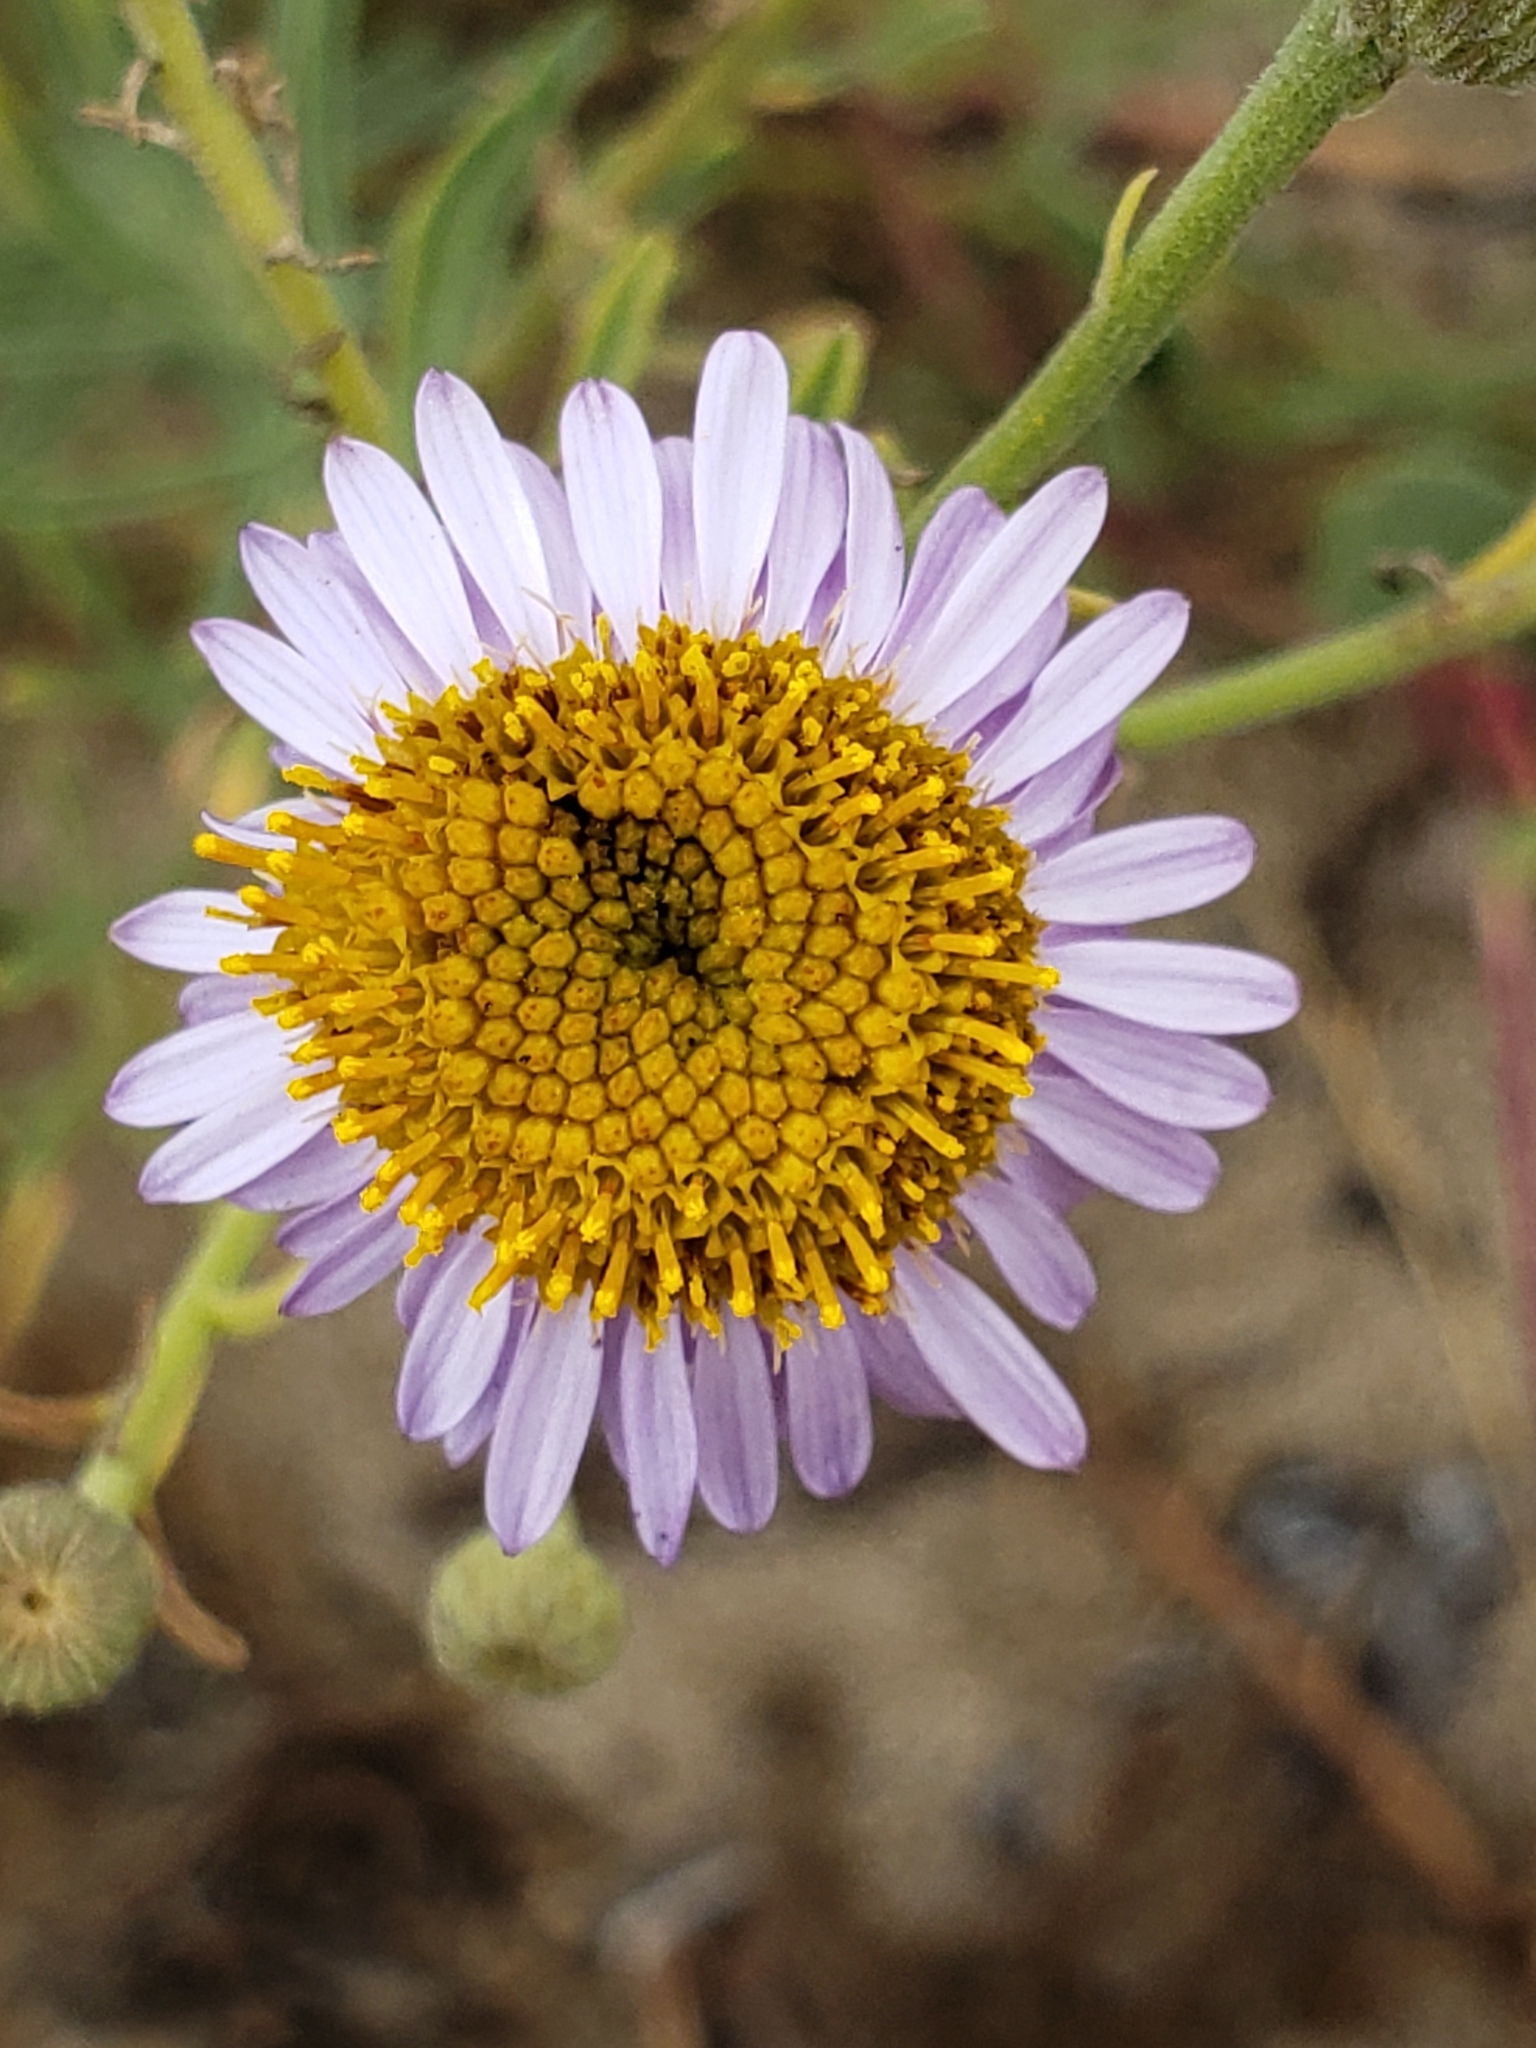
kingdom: Plantae
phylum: Tracheophyta
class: Magnoliopsida
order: Asterales
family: Asteraceae
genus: Erigeron
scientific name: Erigeron blochmaniae
